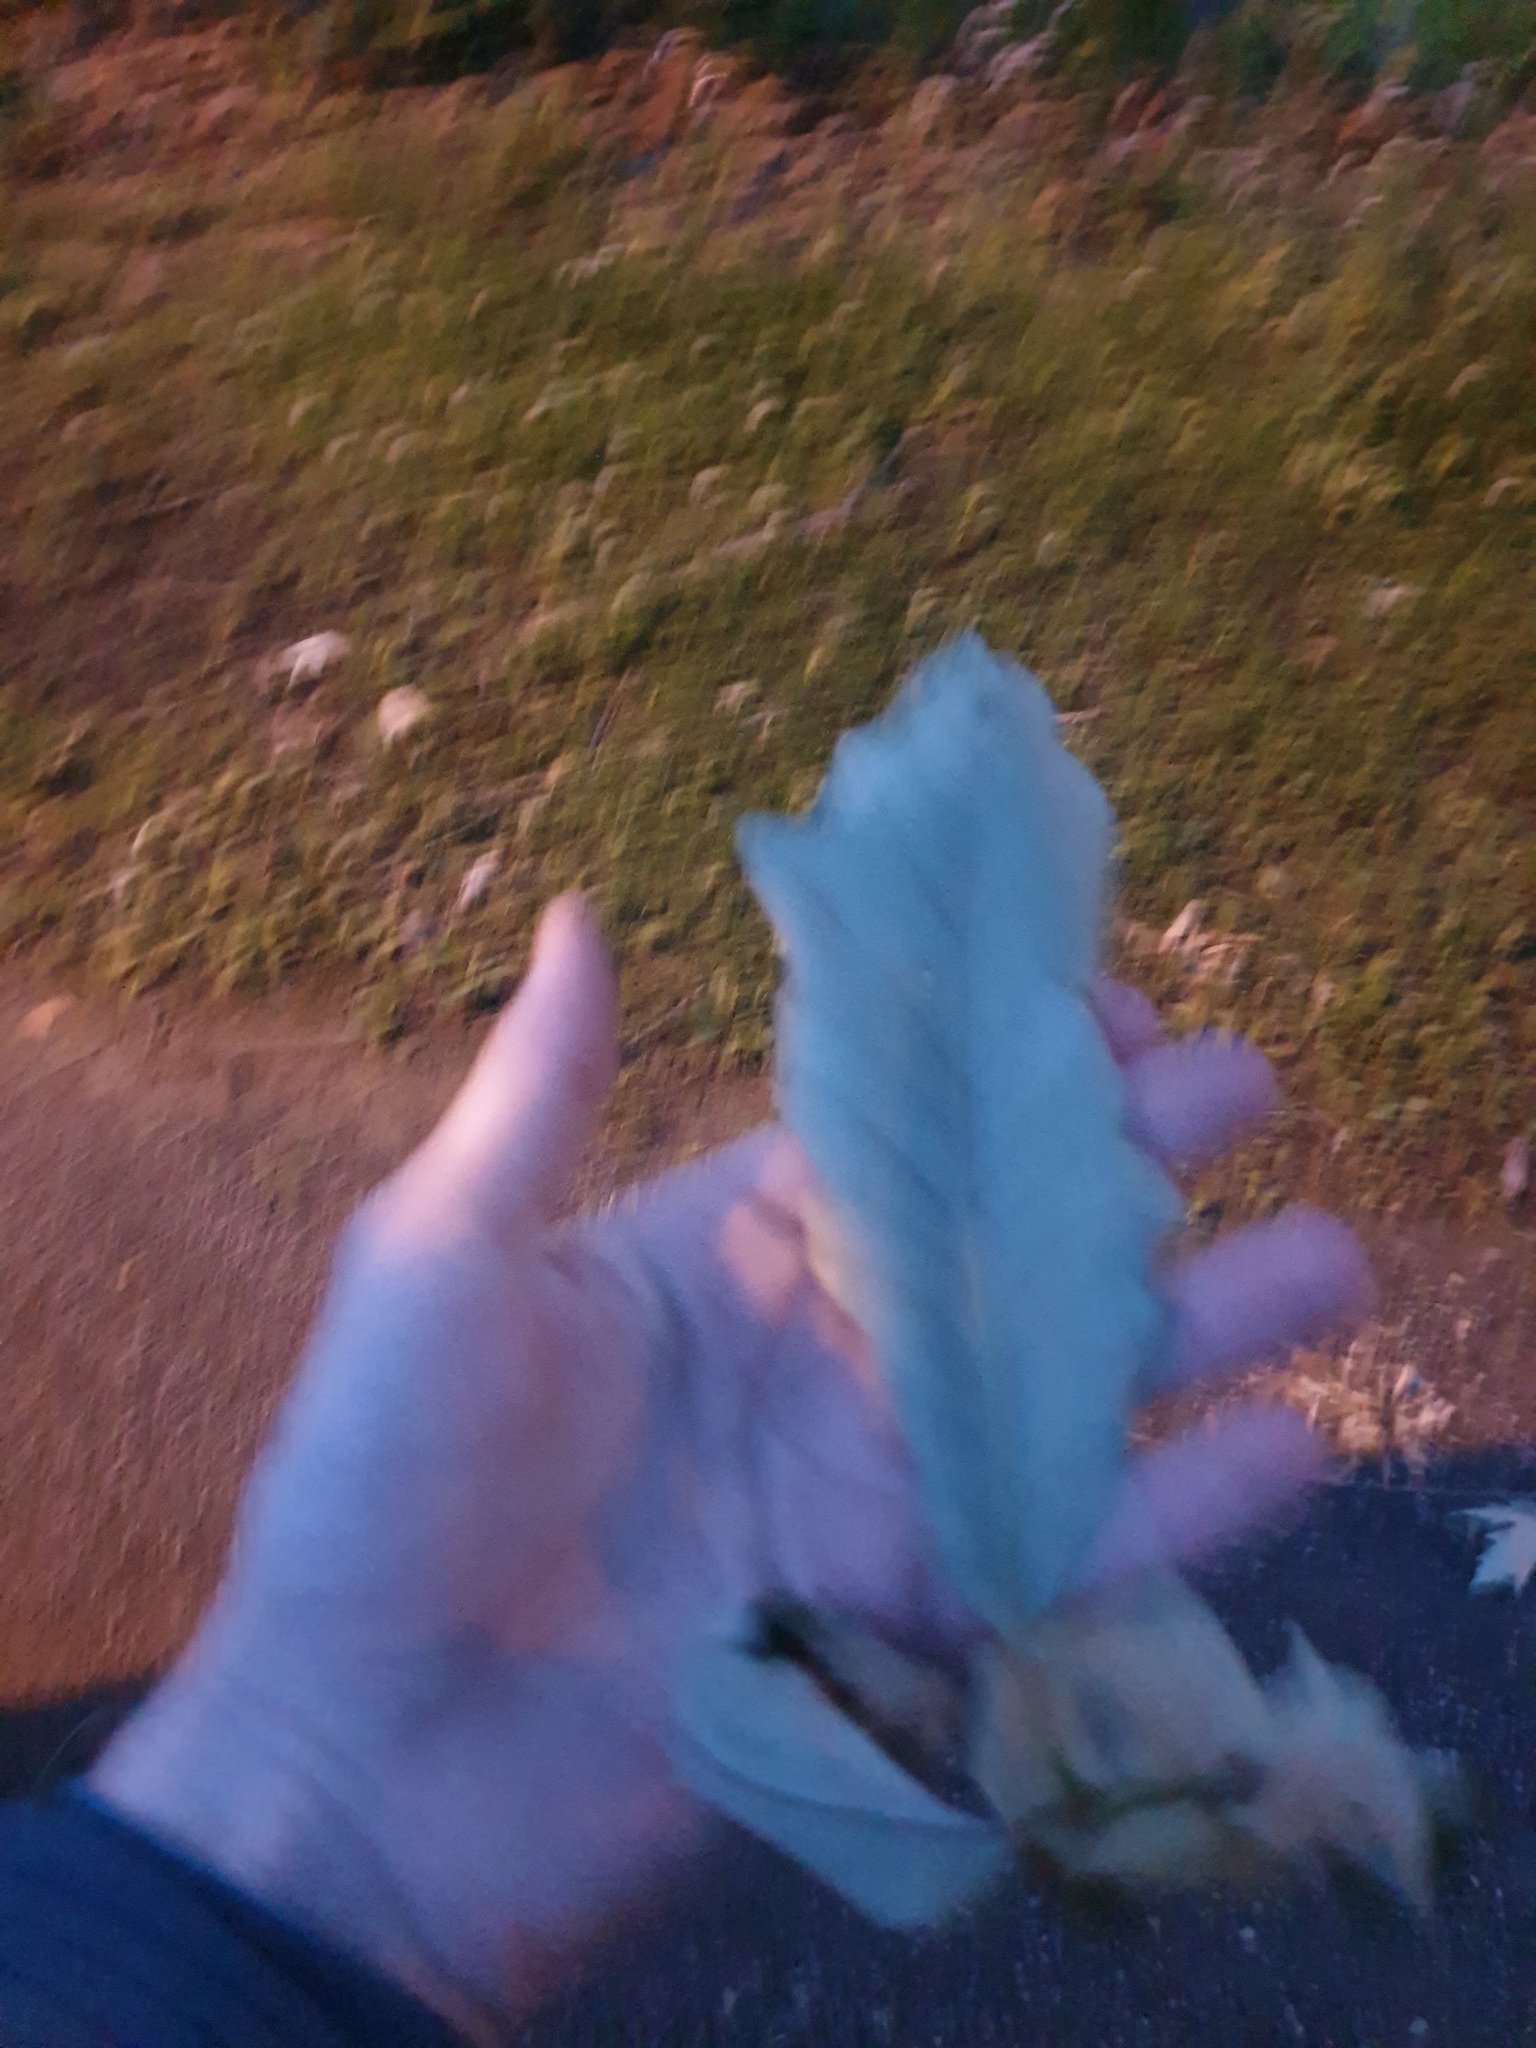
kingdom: Plantae
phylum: Tracheophyta
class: Magnoliopsida
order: Fagales
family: Fagaceae
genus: Quercus
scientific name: Quercus bicolor
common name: Swamp white oak
